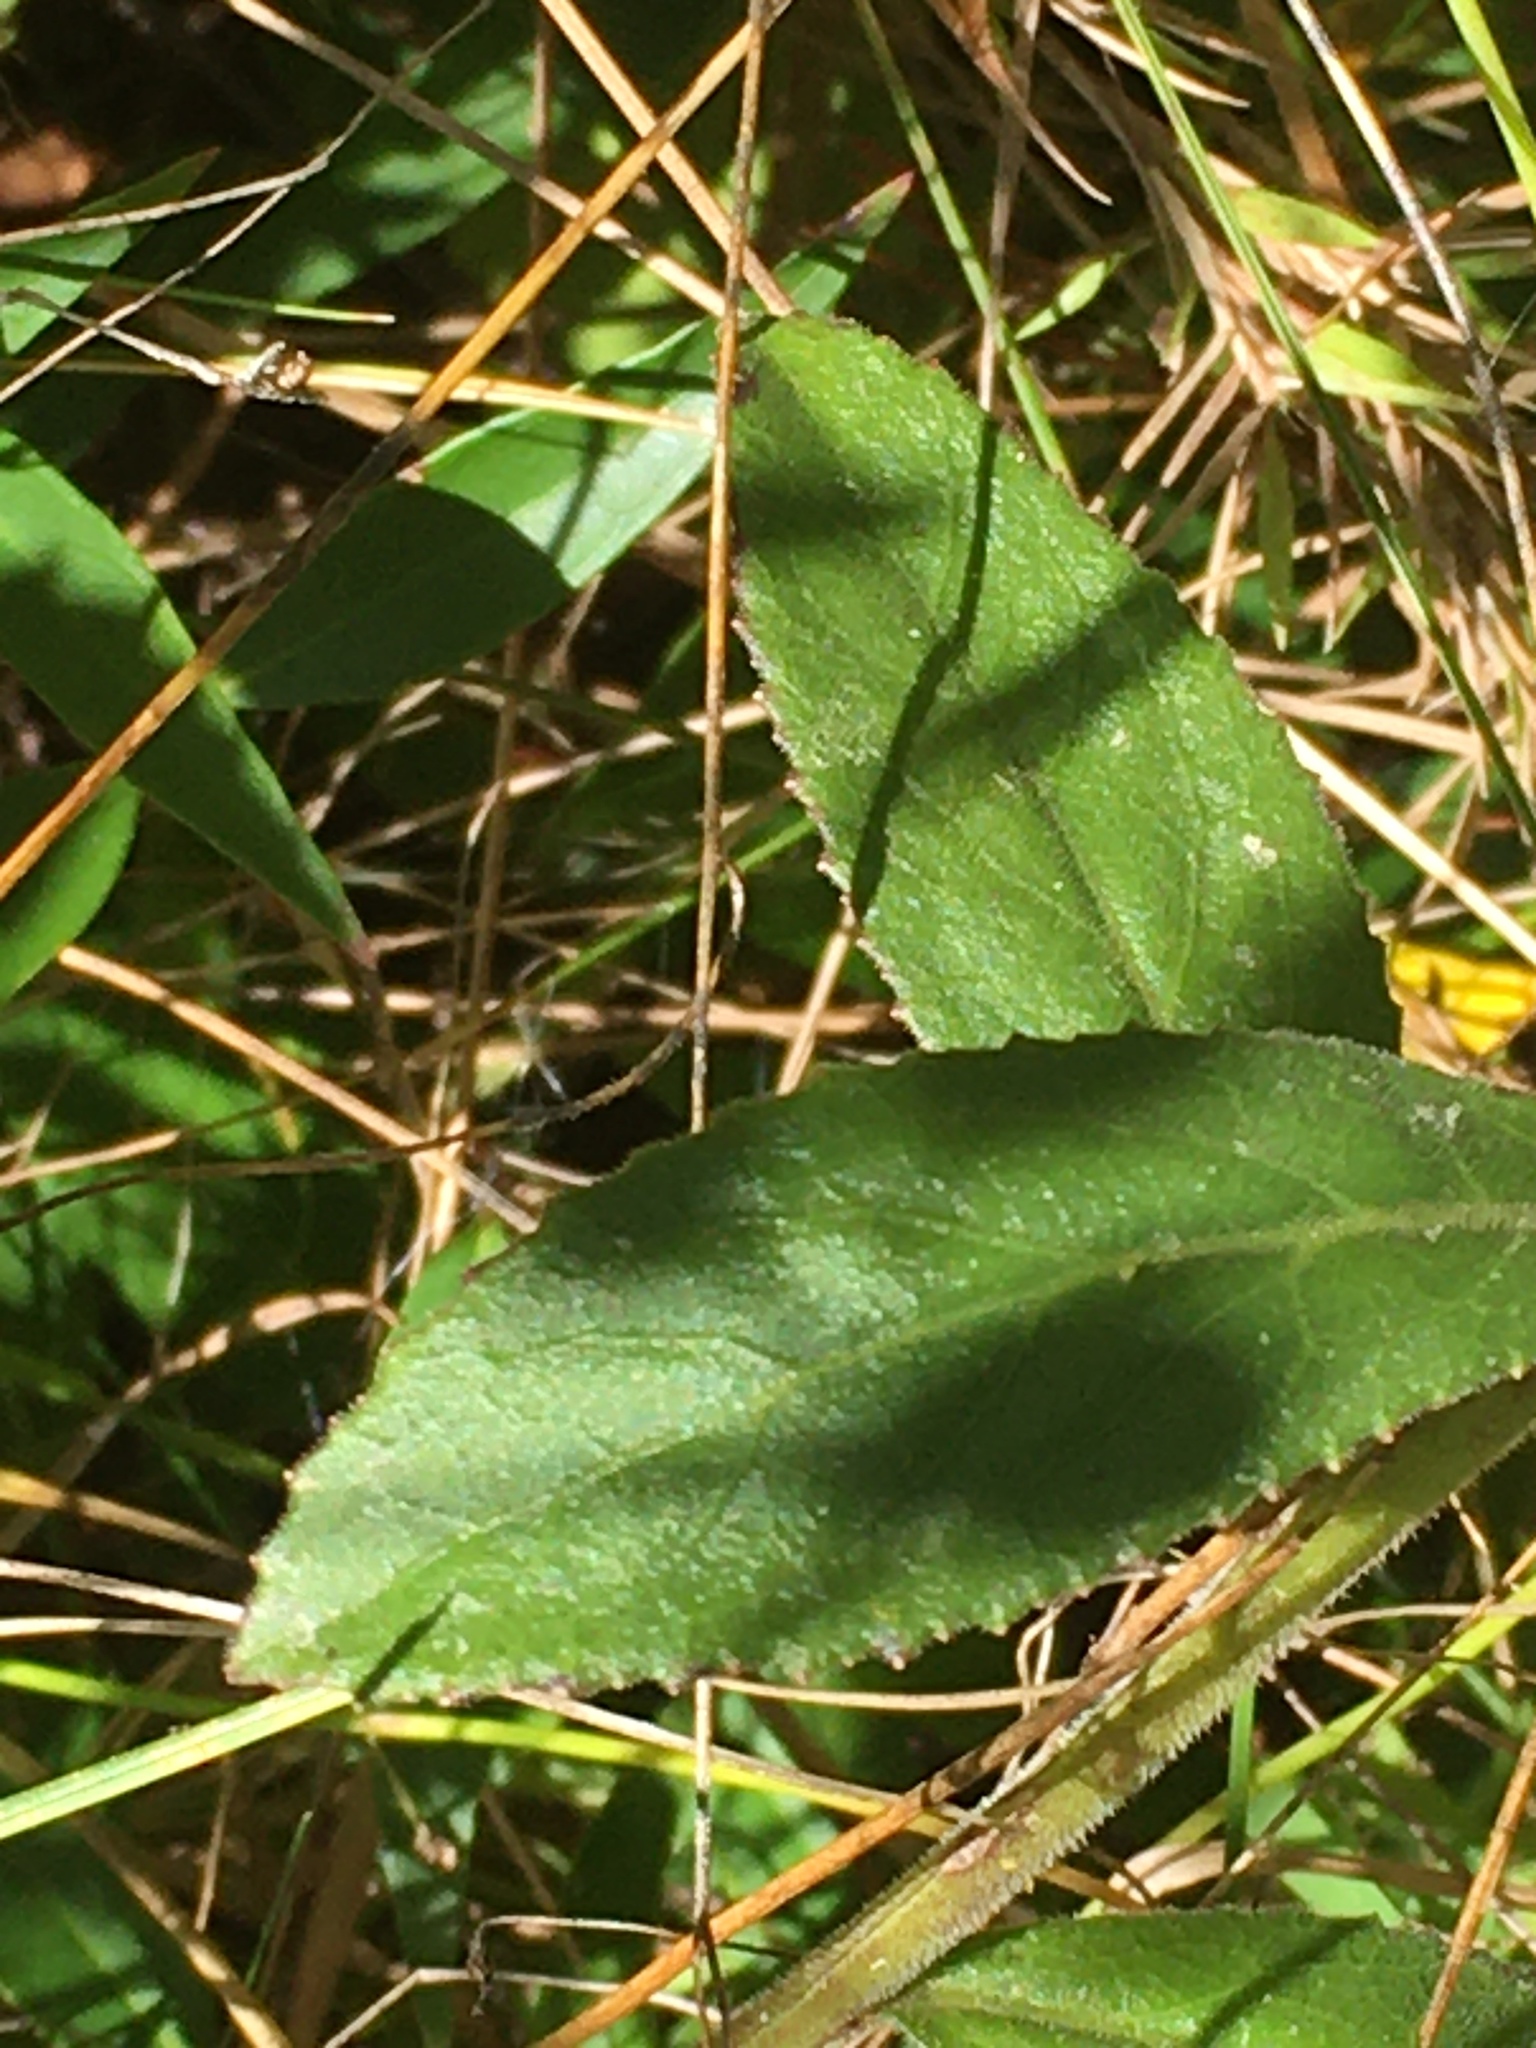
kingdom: Plantae
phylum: Tracheophyta
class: Magnoliopsida
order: Asterales
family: Campanulaceae
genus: Lobelia
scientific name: Lobelia puberula
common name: Purple dewdrop
